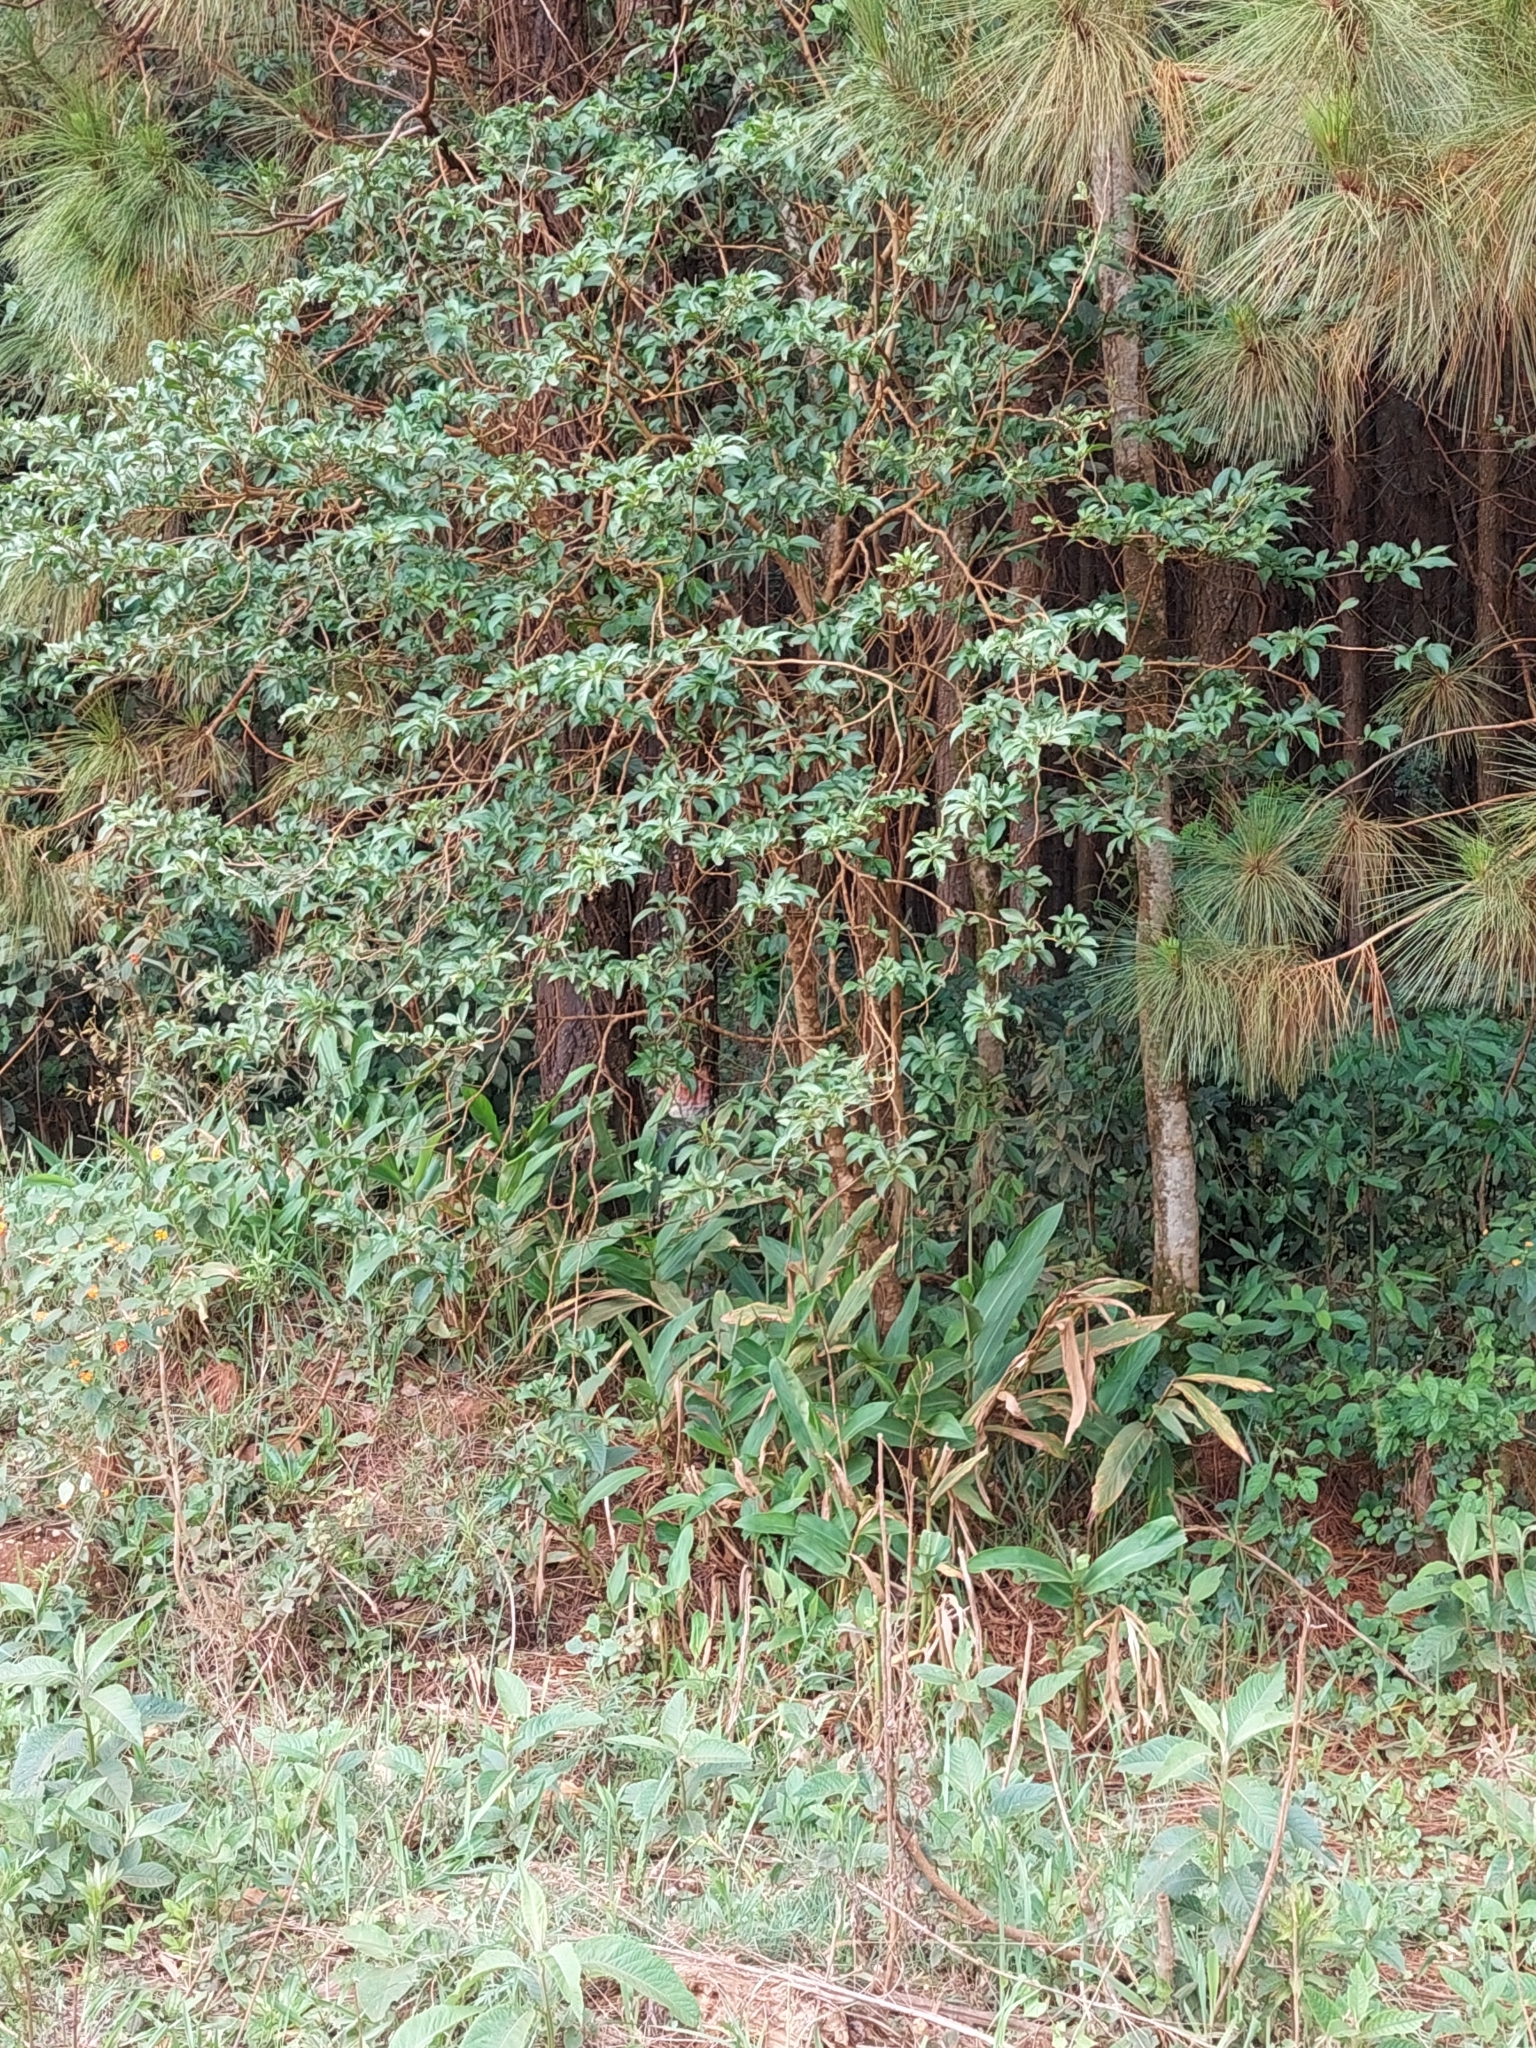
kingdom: Plantae
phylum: Tracheophyta
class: Liliopsida
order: Zingiberales
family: Zingiberaceae
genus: Hedychium
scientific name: Hedychium coronarium
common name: White garland-lily
